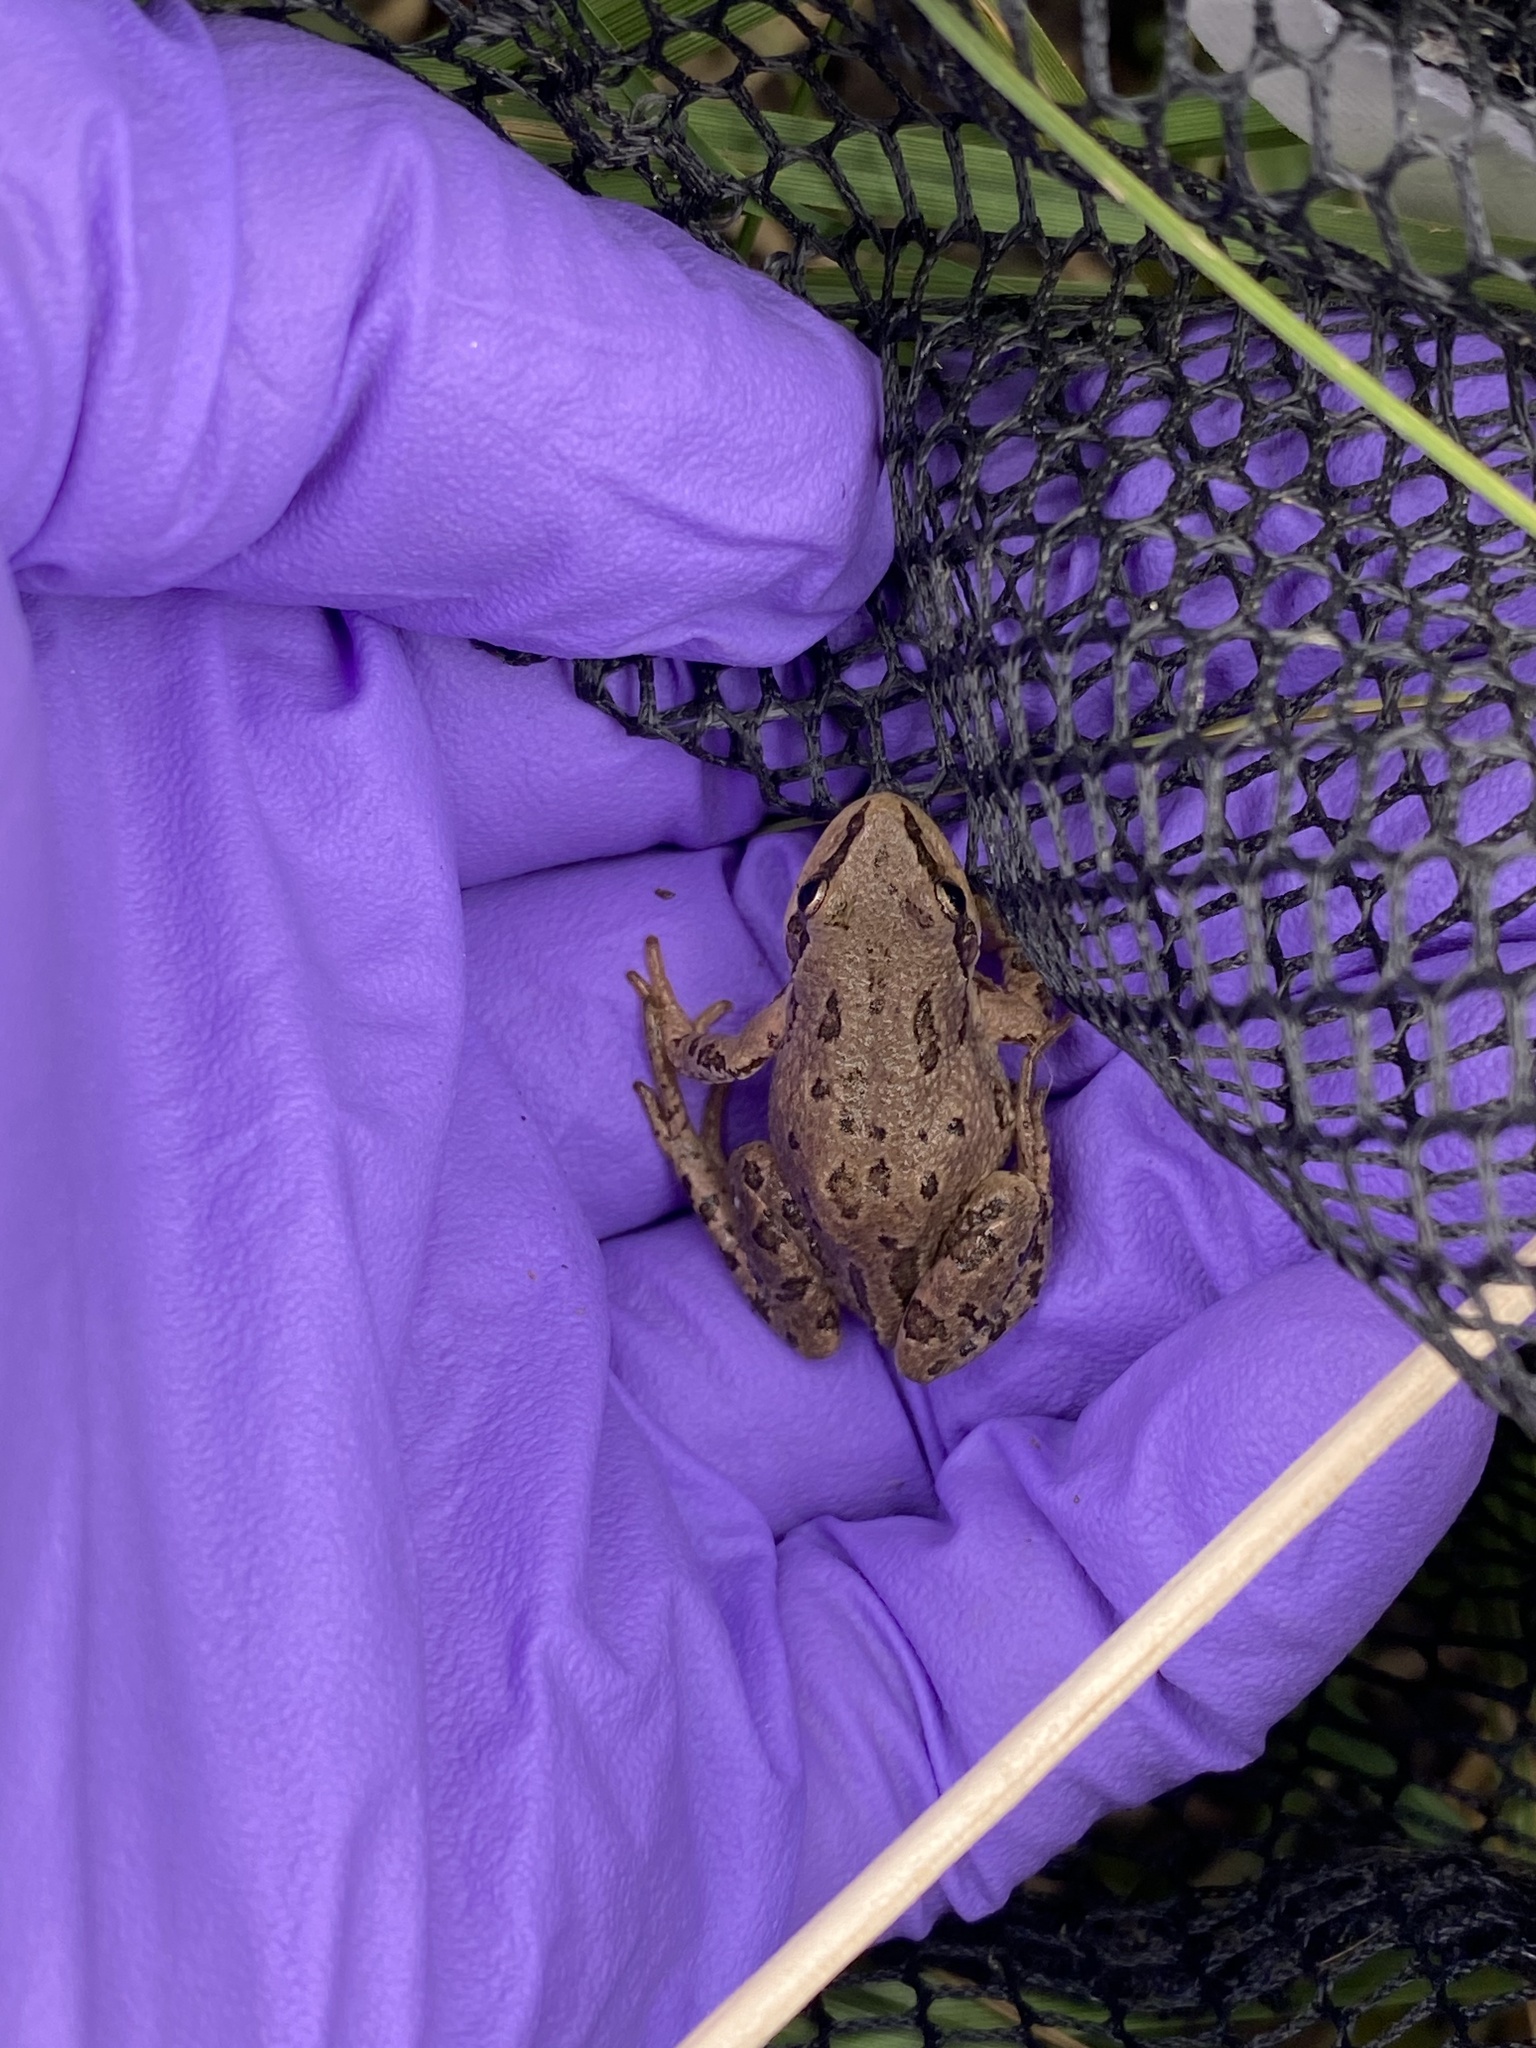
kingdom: Animalia
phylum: Chordata
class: Amphibia
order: Anura
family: Hylidae
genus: Pseudacris
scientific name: Pseudacris maculata
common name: Boreal chorus frog
